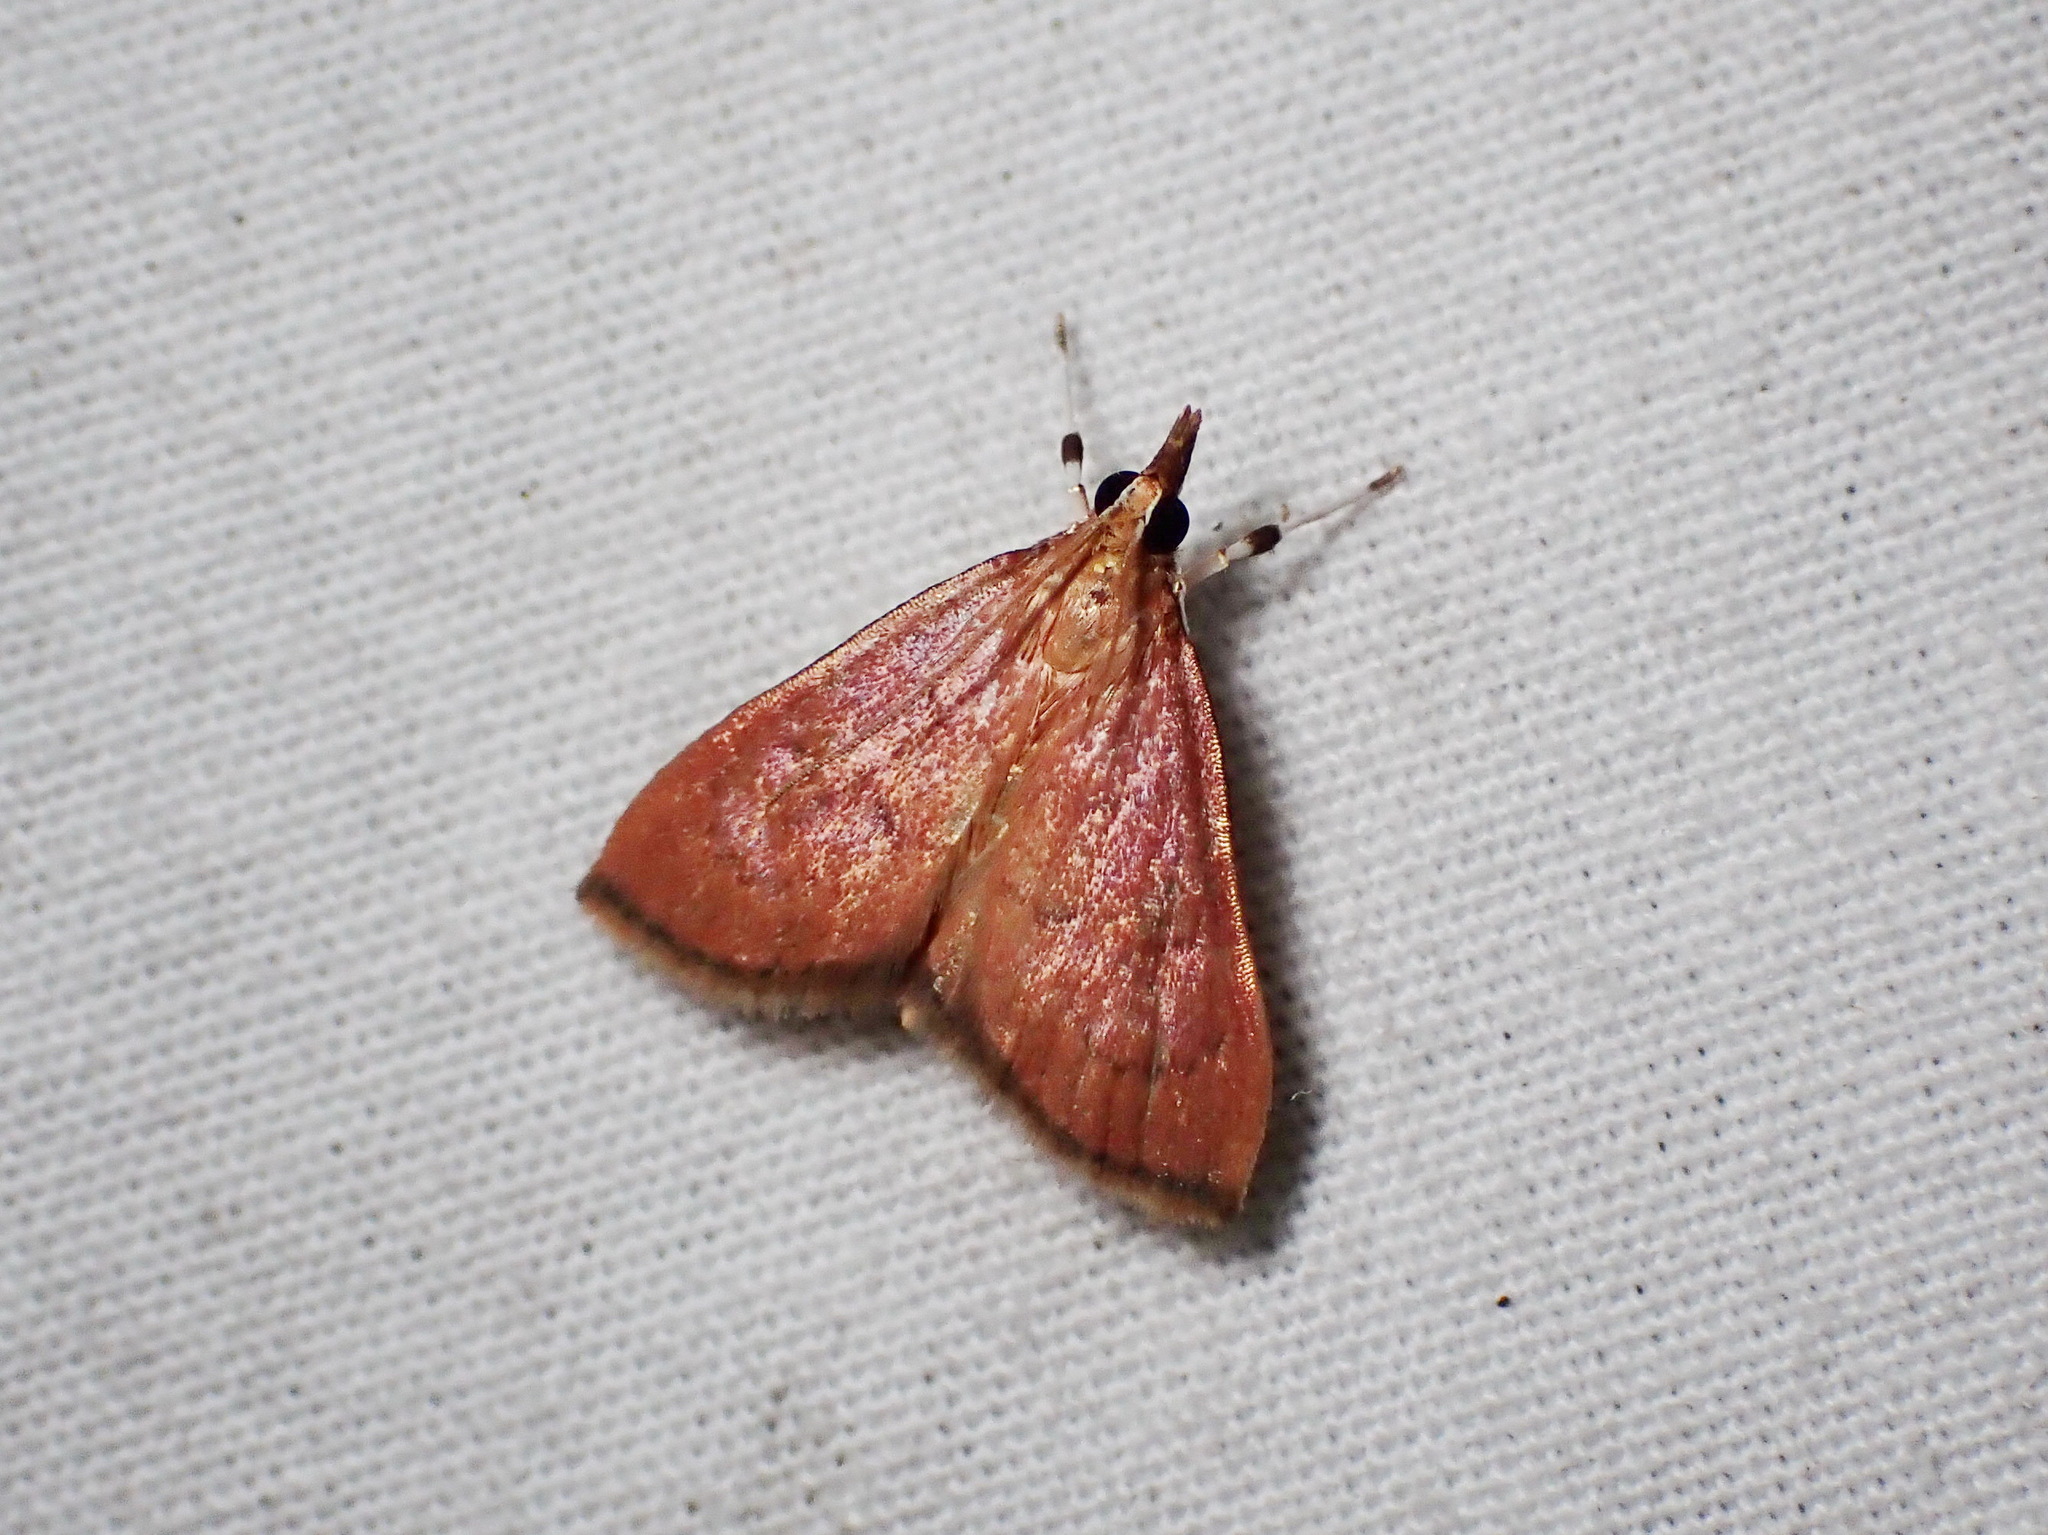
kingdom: Animalia
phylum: Arthropoda
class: Insecta
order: Lepidoptera
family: Crambidae
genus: Oenobotys
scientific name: Oenobotys texanalis
